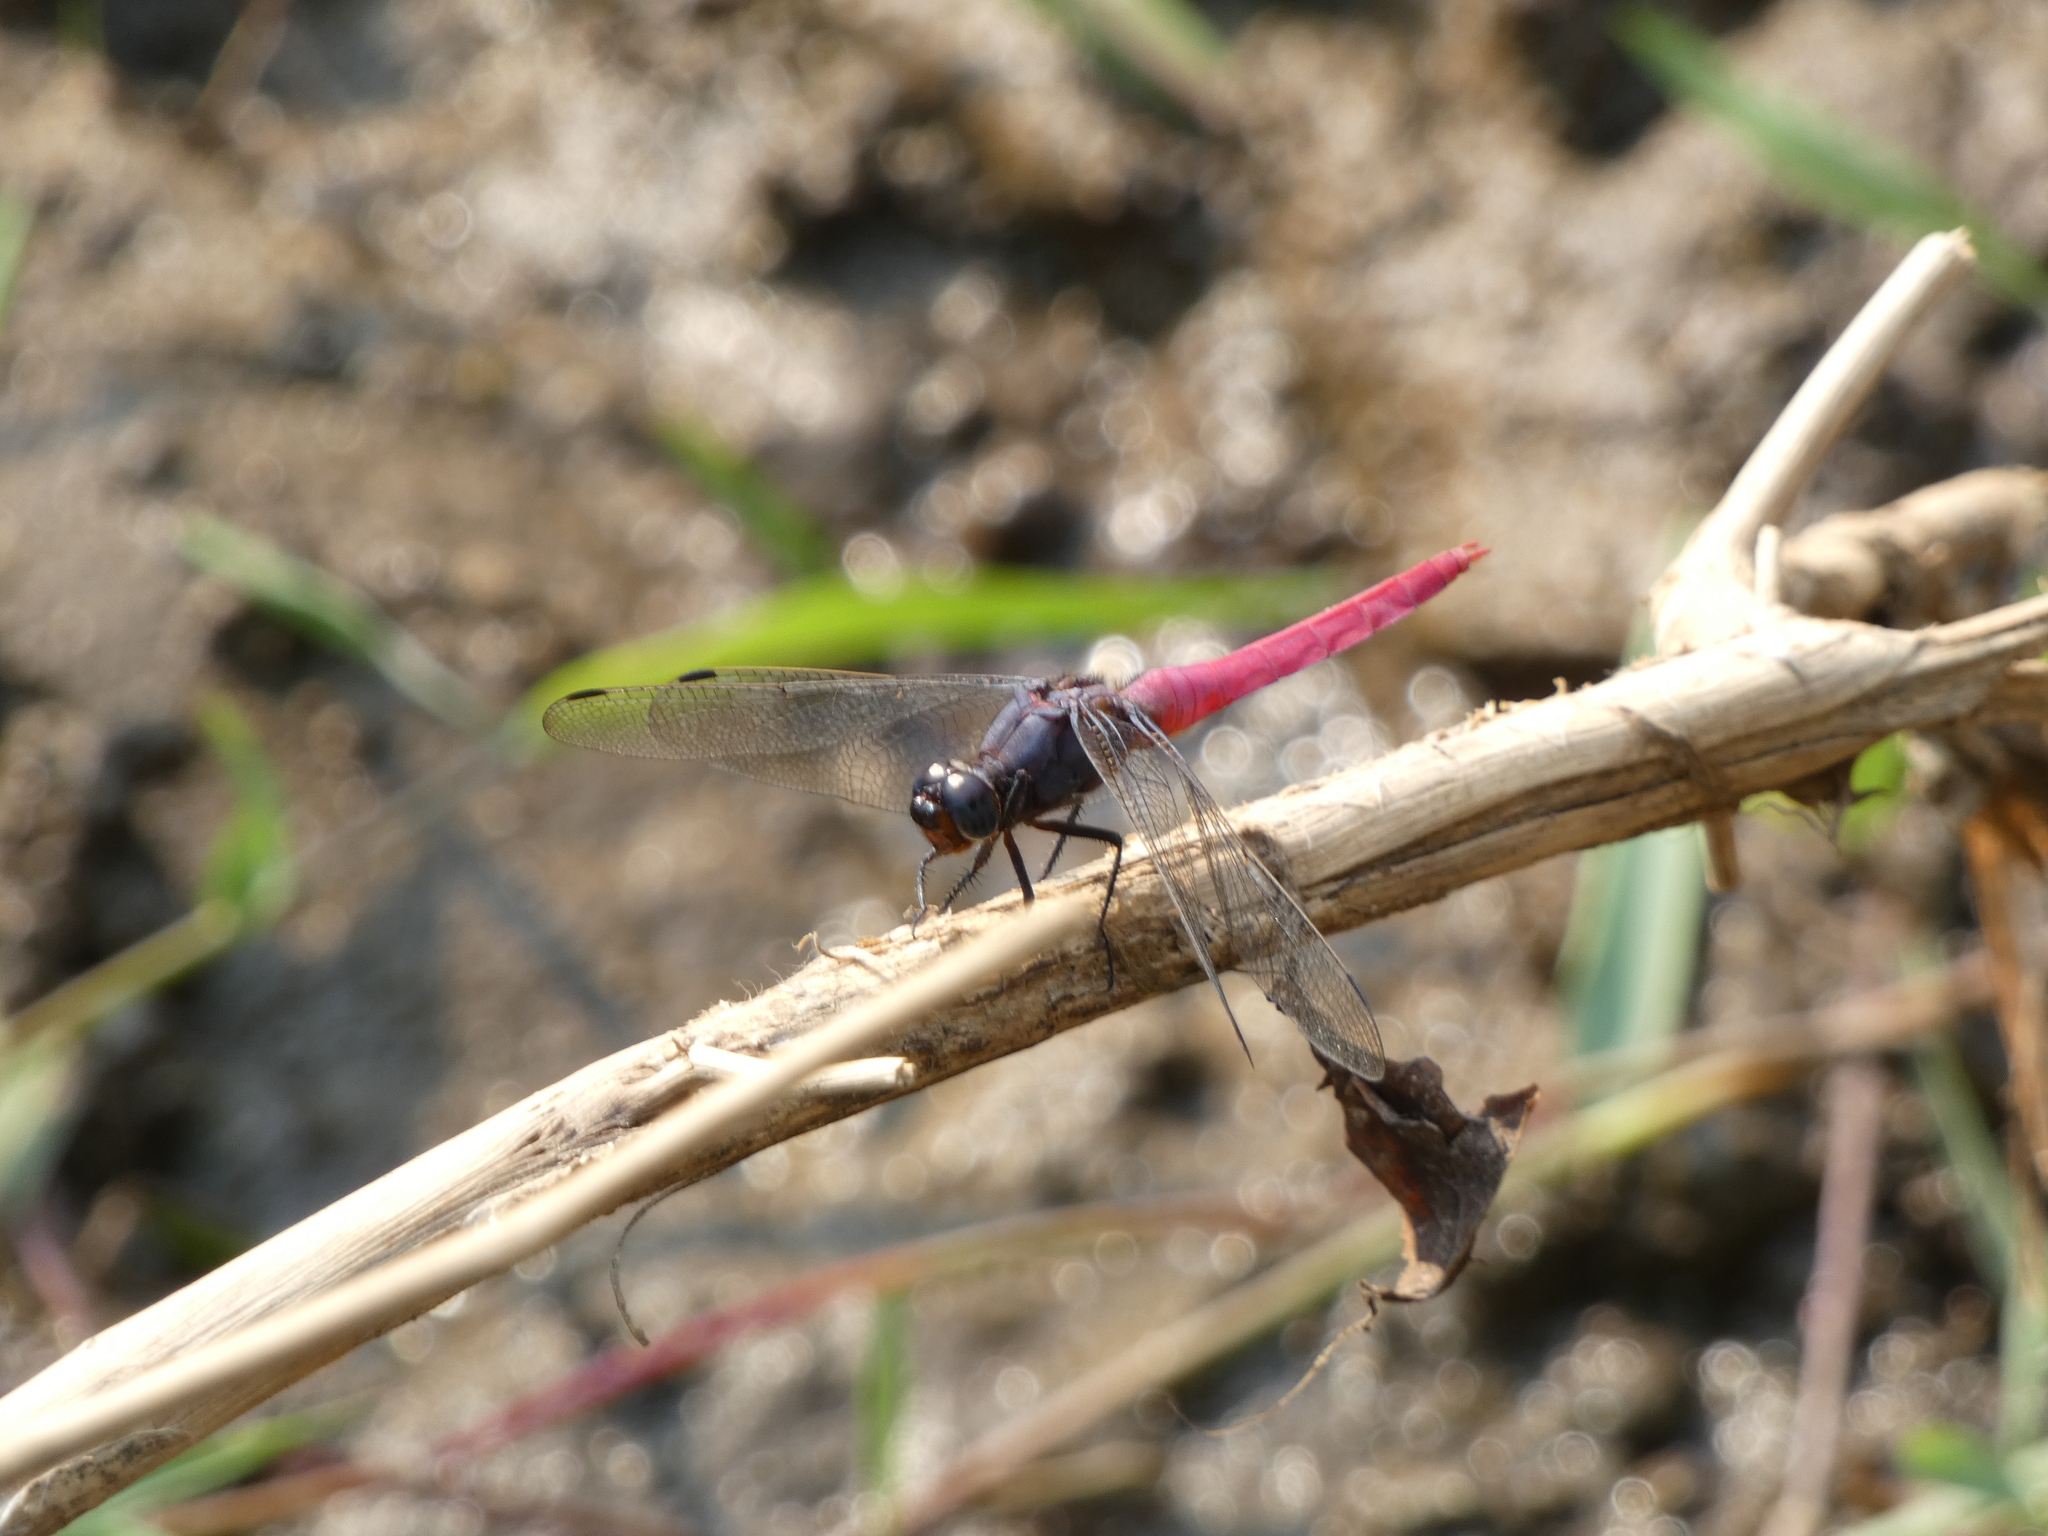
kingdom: Animalia
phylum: Arthropoda
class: Insecta
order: Odonata
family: Libellulidae
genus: Orthetrum
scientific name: Orthetrum pruinosum
